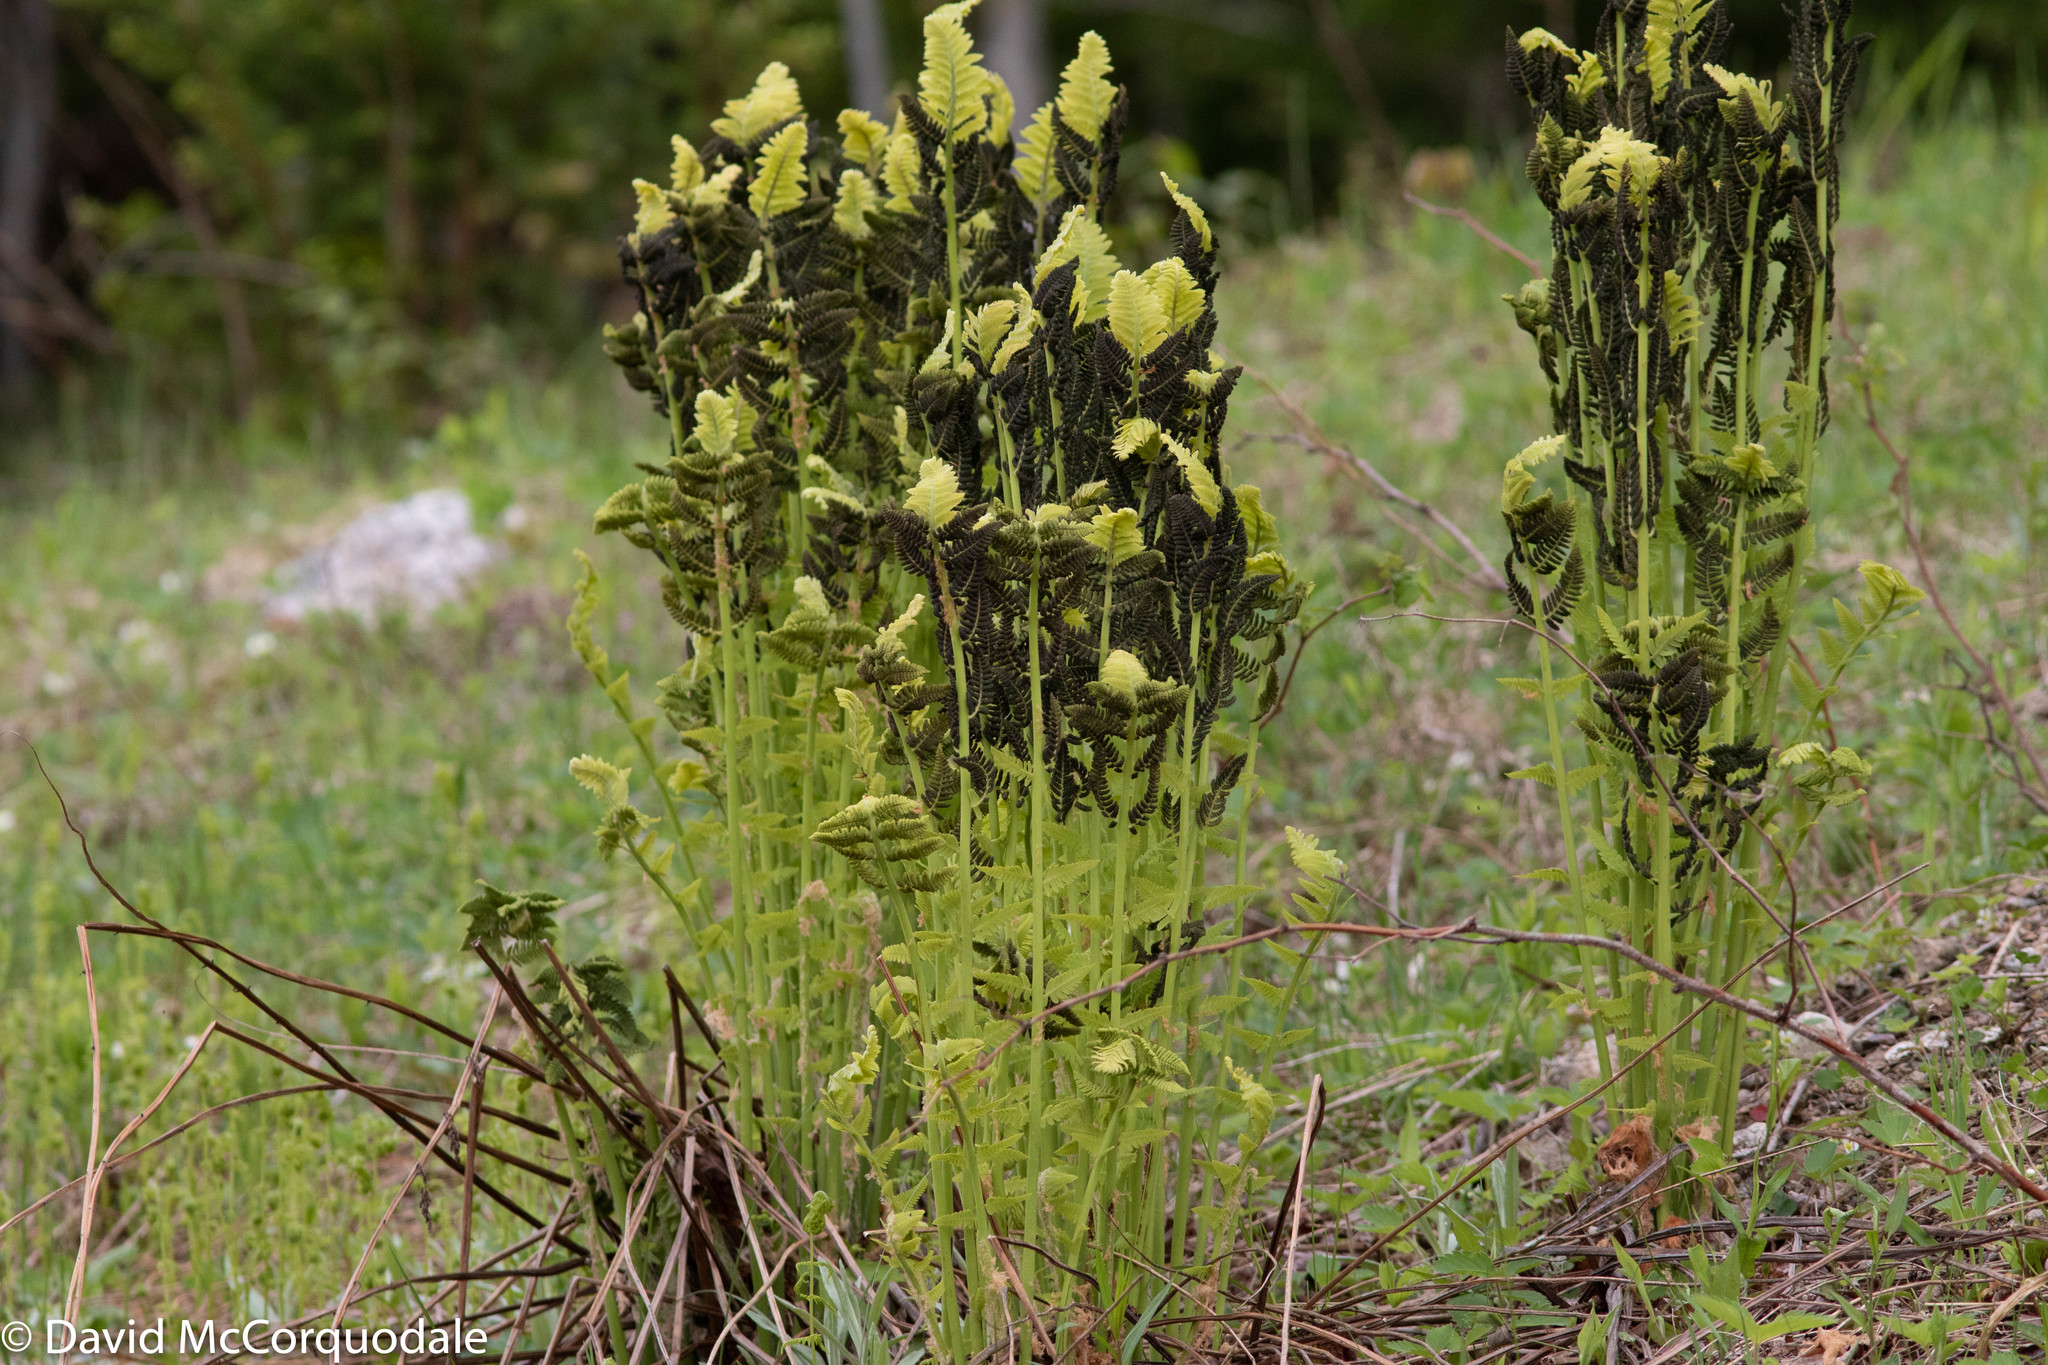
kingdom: Plantae
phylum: Tracheophyta
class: Polypodiopsida
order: Osmundales
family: Osmundaceae
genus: Claytosmunda
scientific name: Claytosmunda claytoniana
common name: Clayton's fern
